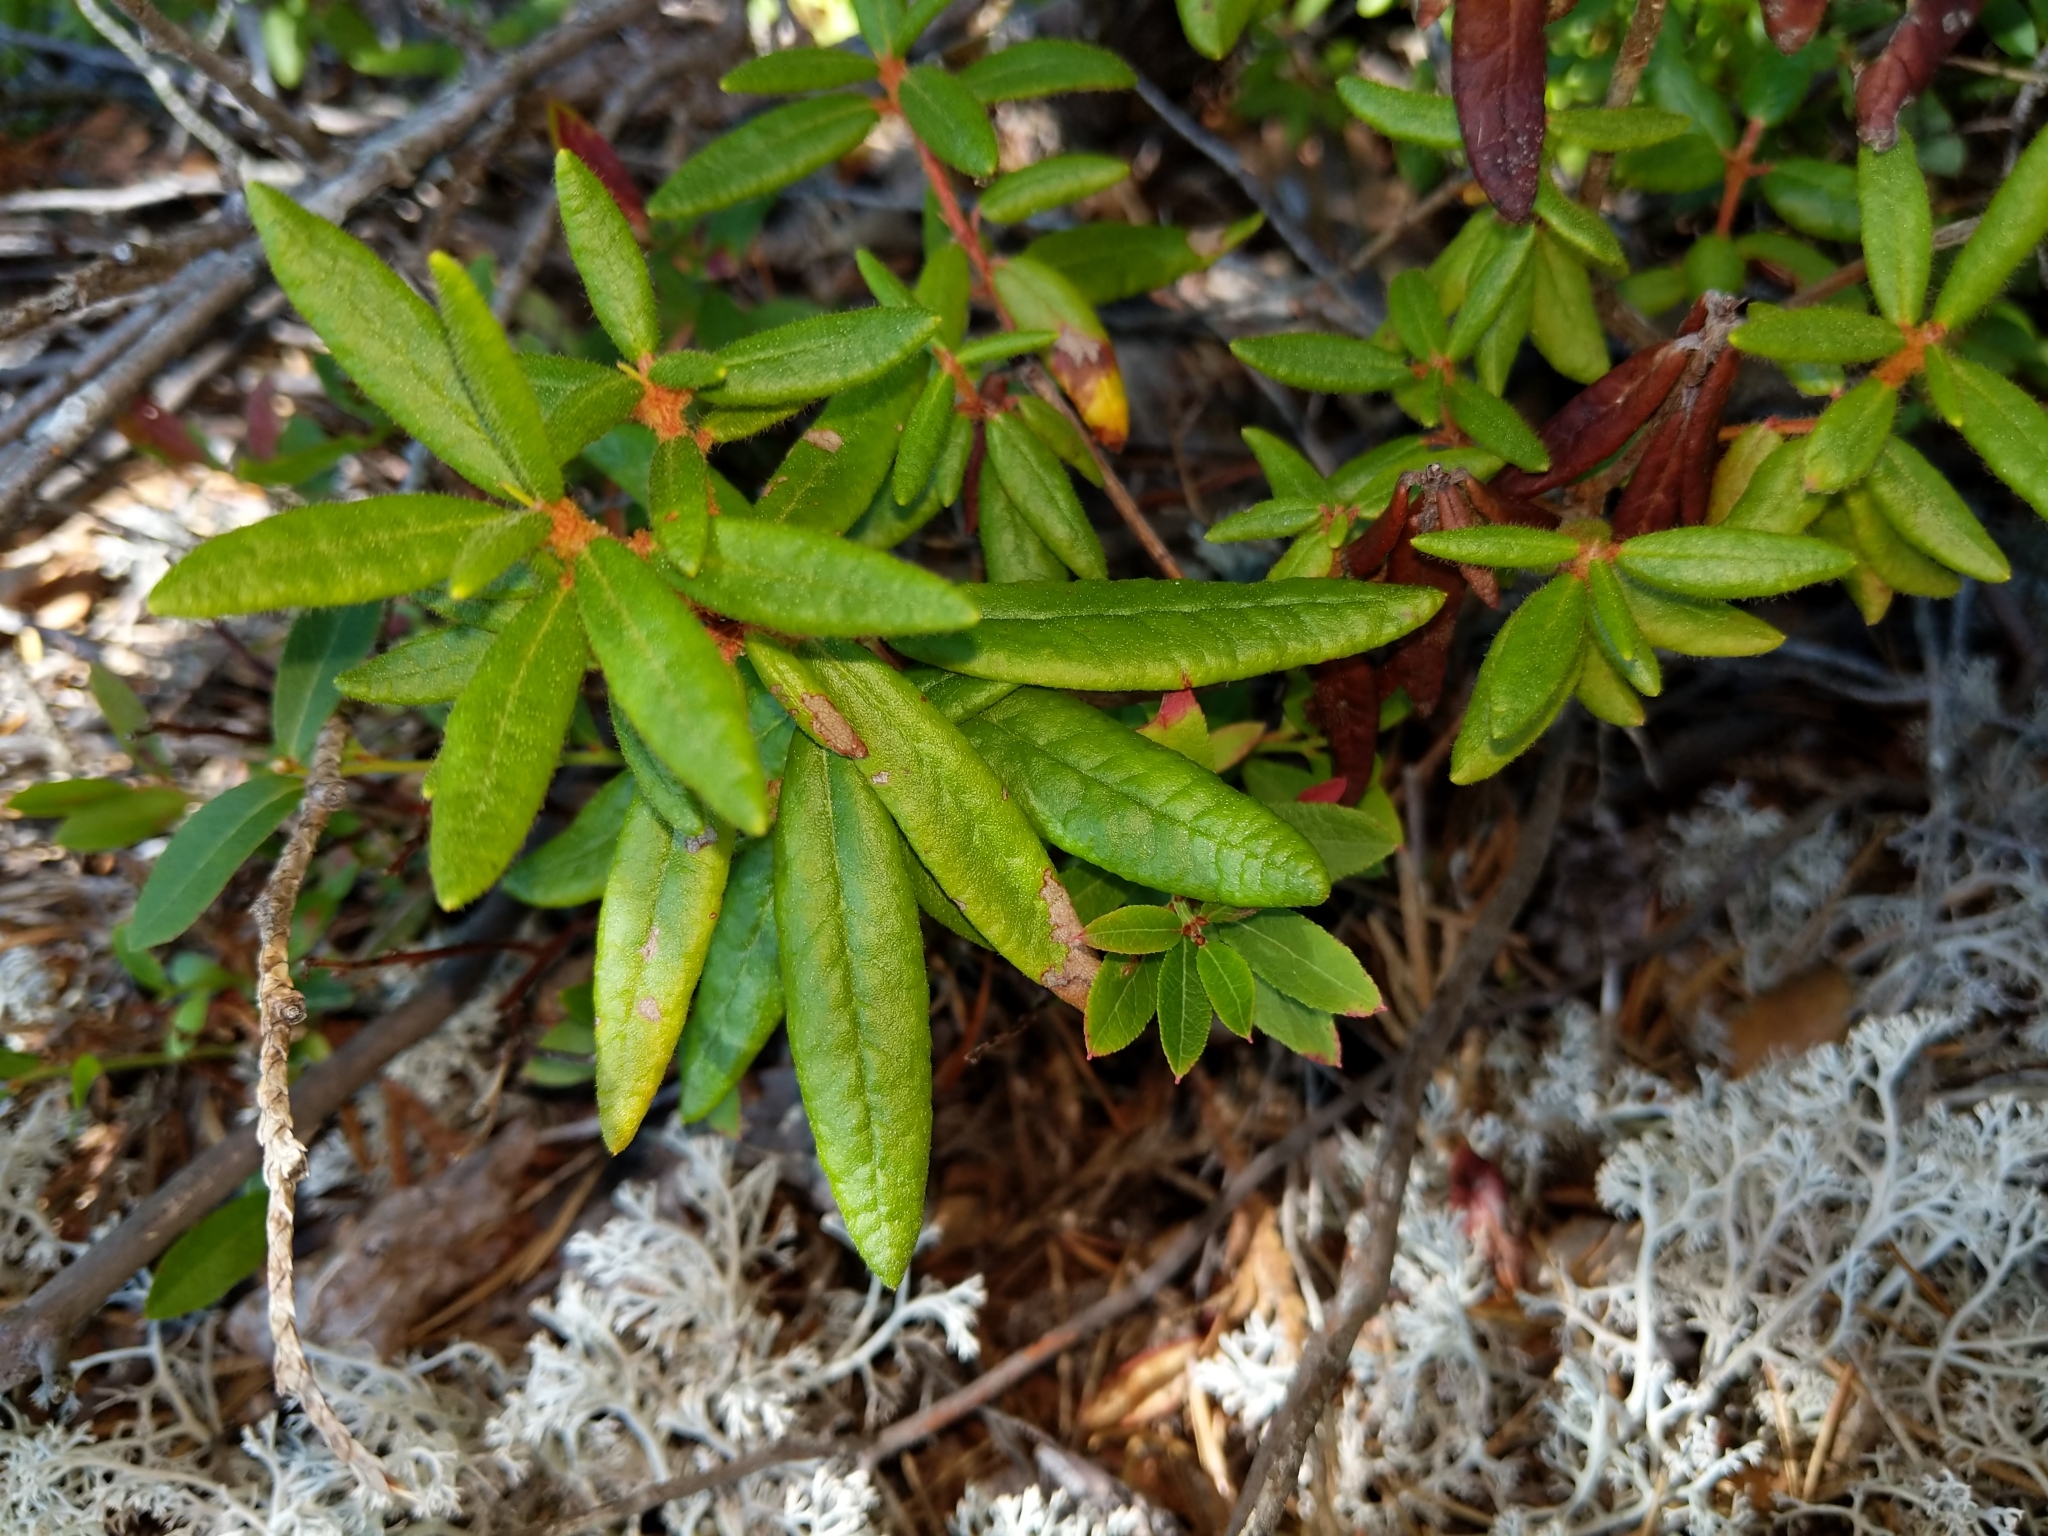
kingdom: Plantae
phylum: Tracheophyta
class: Magnoliopsida
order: Ericales
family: Ericaceae
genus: Rhododendron
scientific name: Rhododendron groenlandicum
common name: Bog labrador tea
